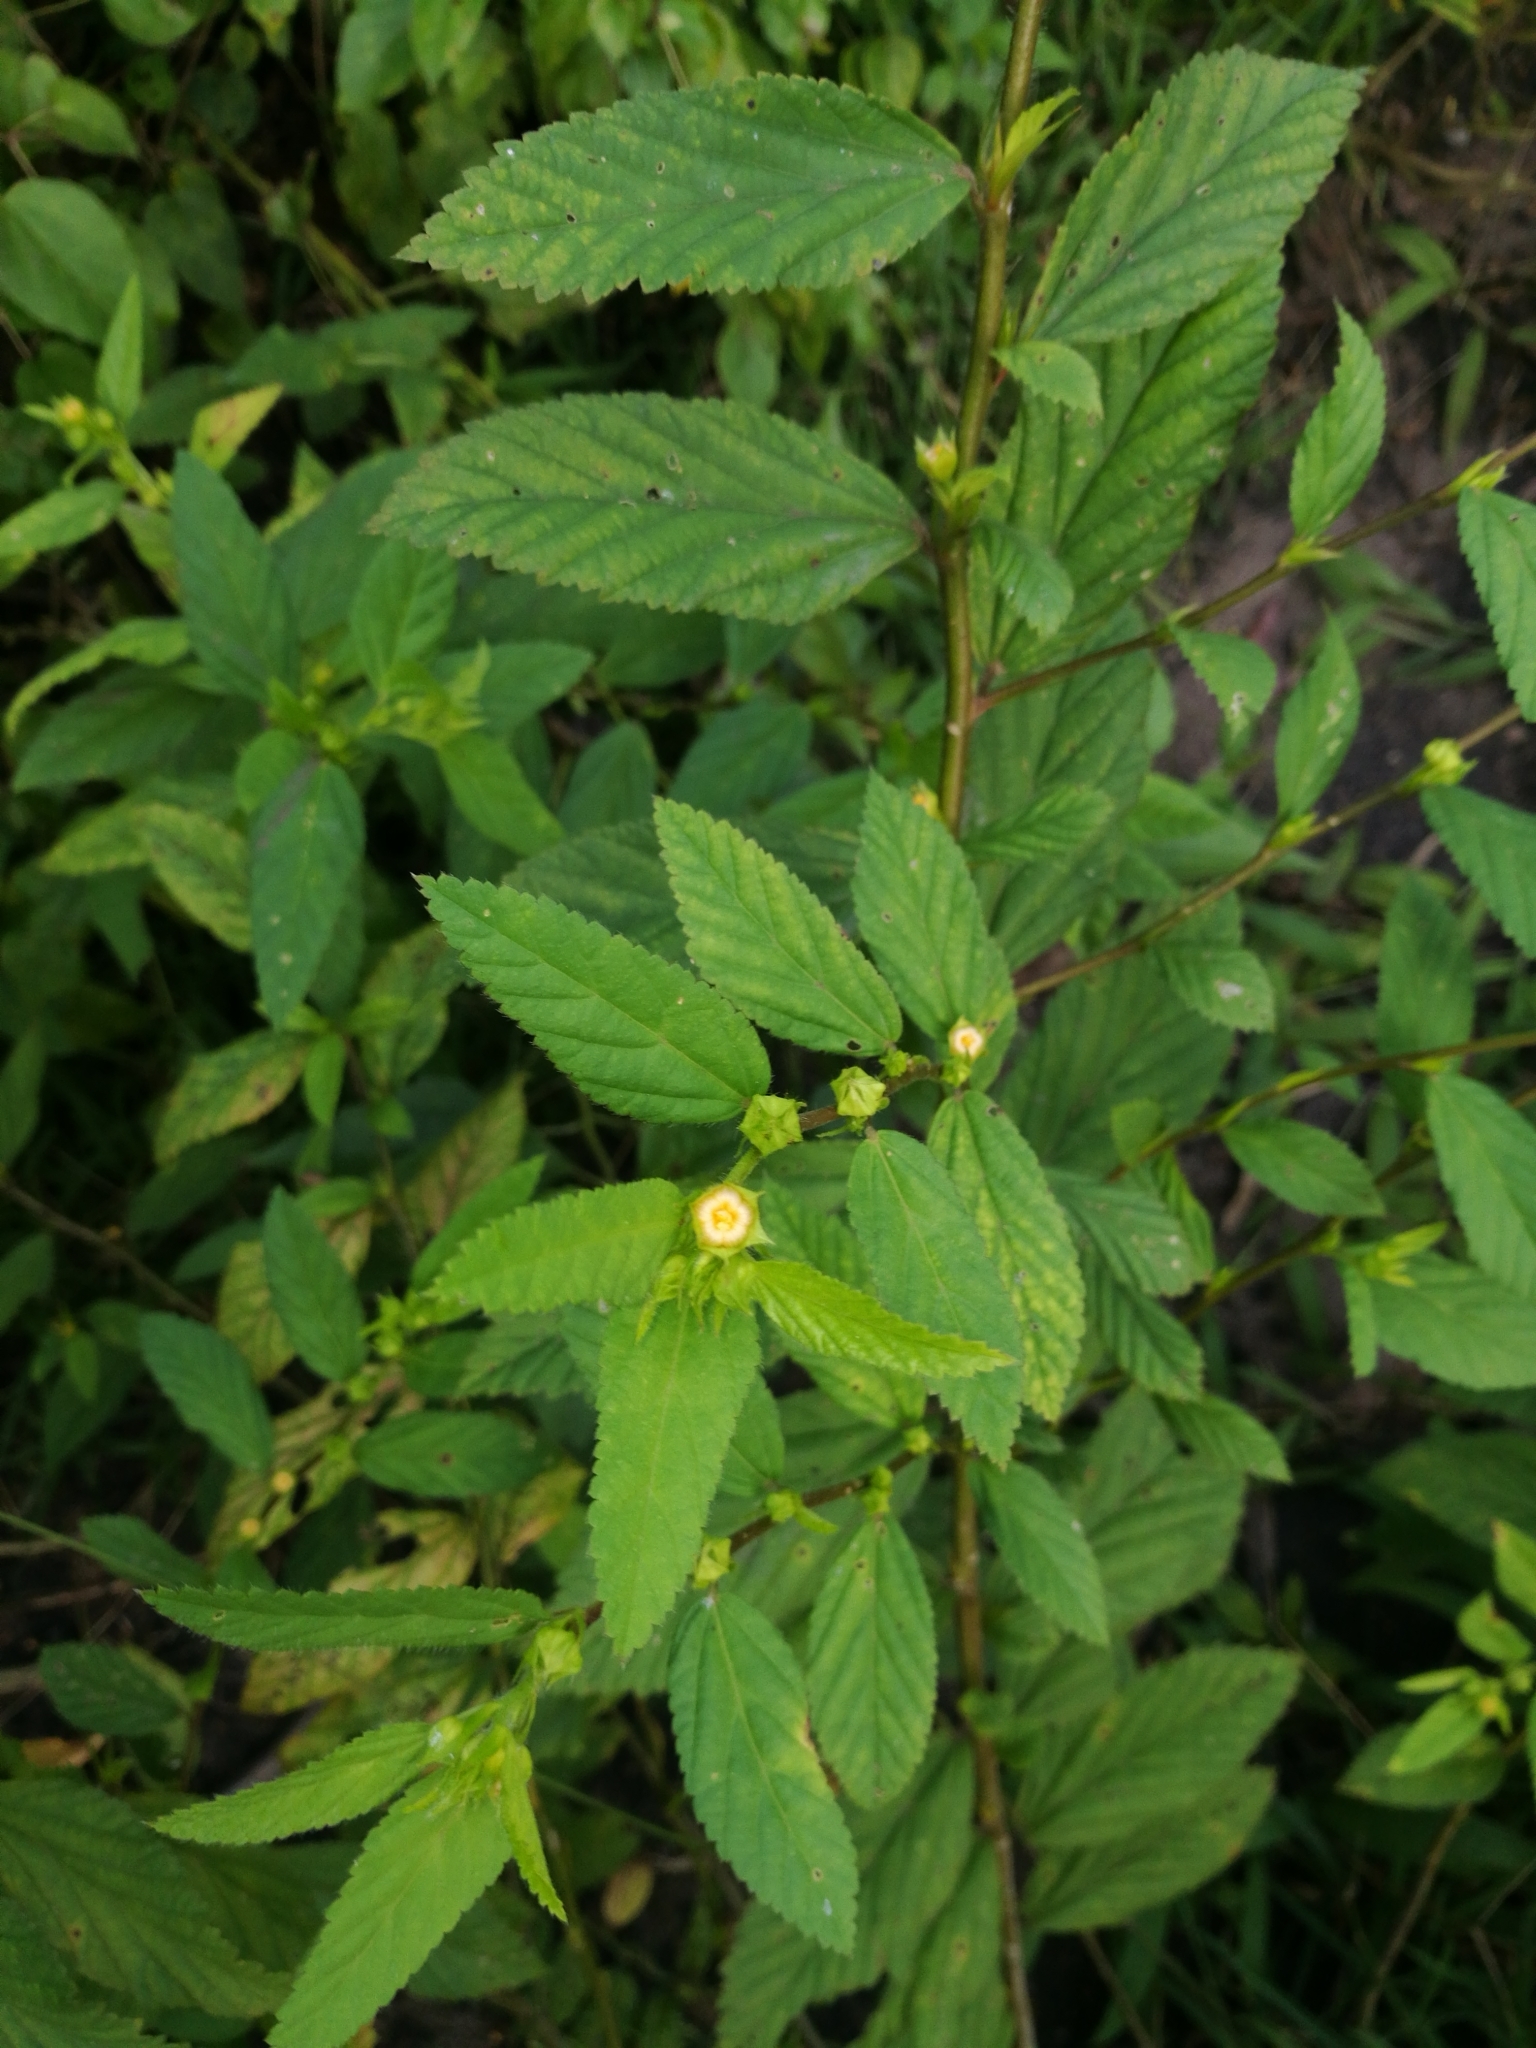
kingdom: Plantae
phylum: Tracheophyta
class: Magnoliopsida
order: Malvales
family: Malvaceae
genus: Sida
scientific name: Sida acuta
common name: Common wireweed
